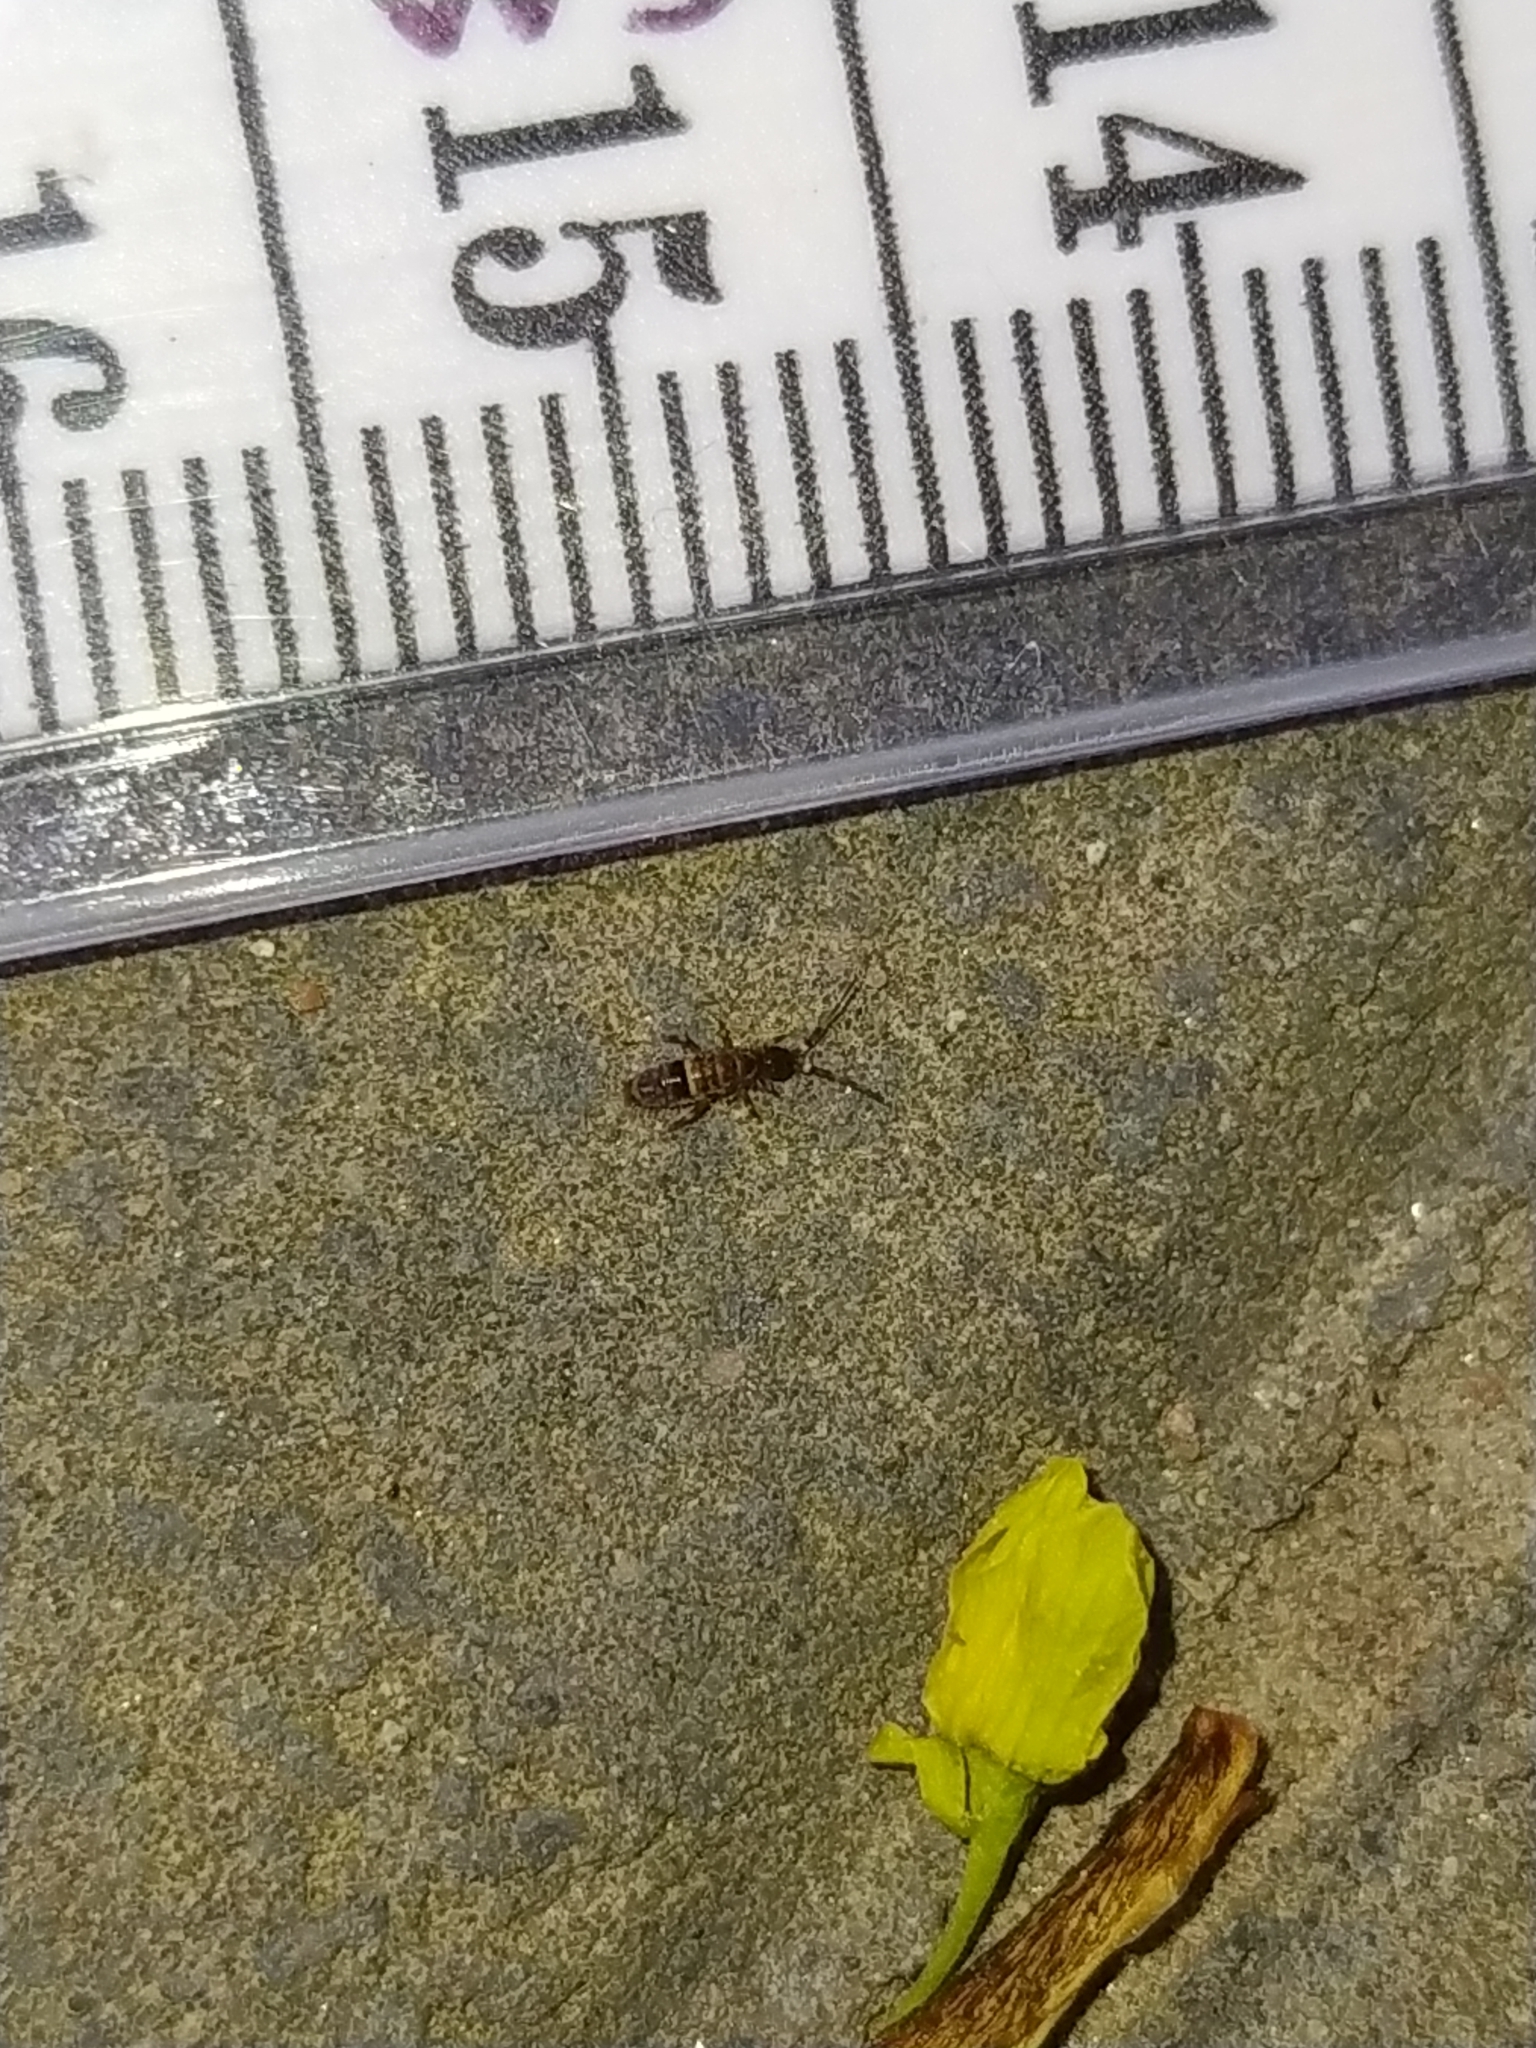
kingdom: Animalia
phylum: Arthropoda
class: Collembola
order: Entomobryomorpha
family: Orchesellidae
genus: Orchesella
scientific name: Orchesella cincta
